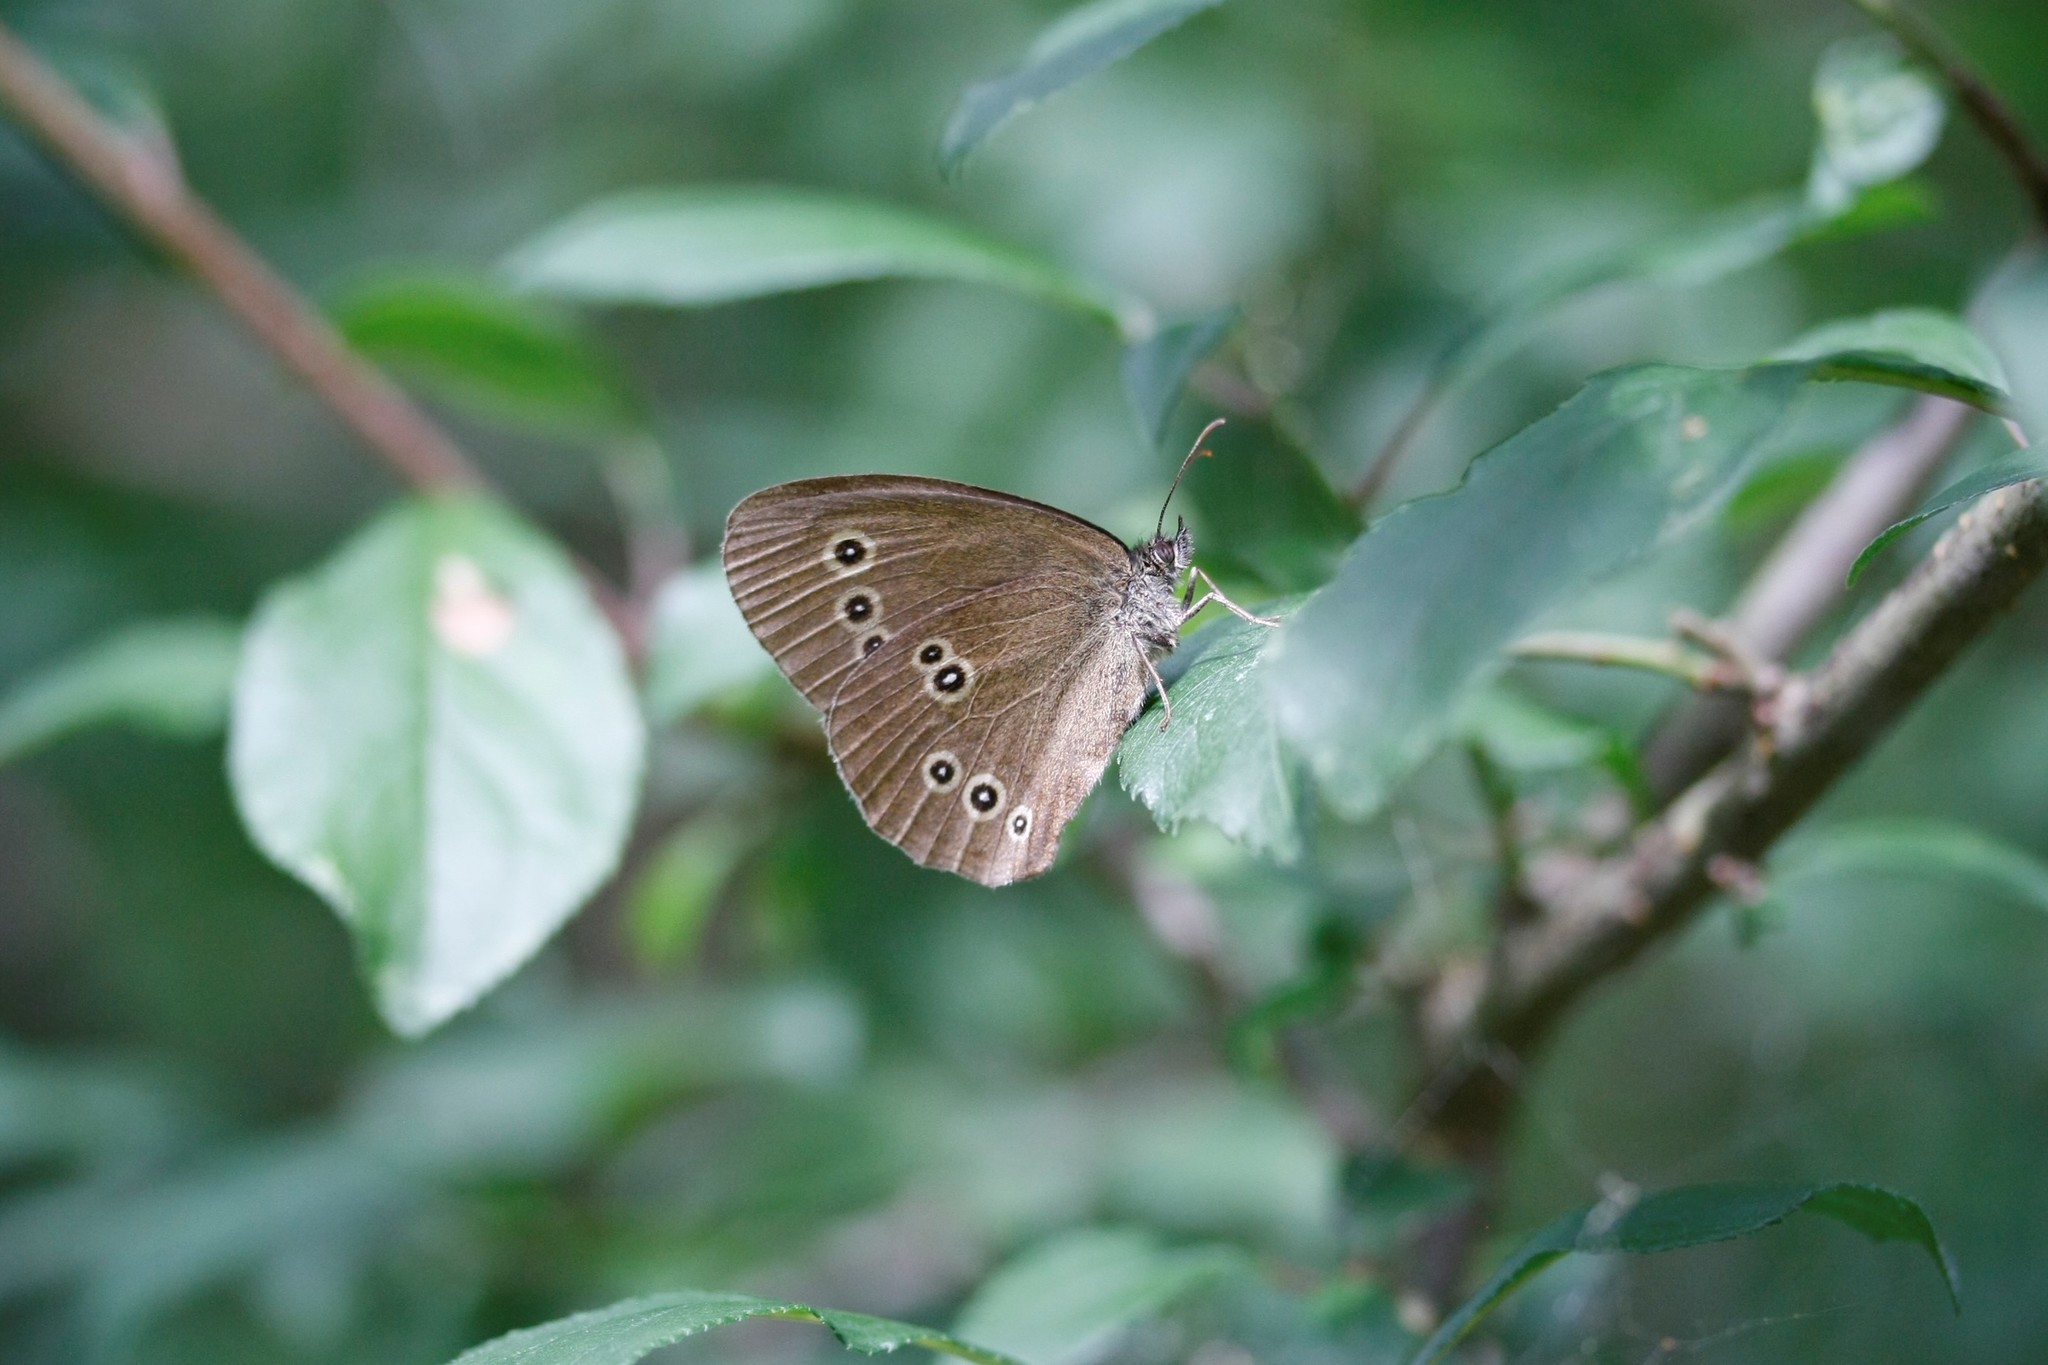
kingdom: Animalia
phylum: Arthropoda
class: Insecta
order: Lepidoptera
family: Nymphalidae
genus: Aphantopus
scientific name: Aphantopus hyperantus
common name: Ringlet
